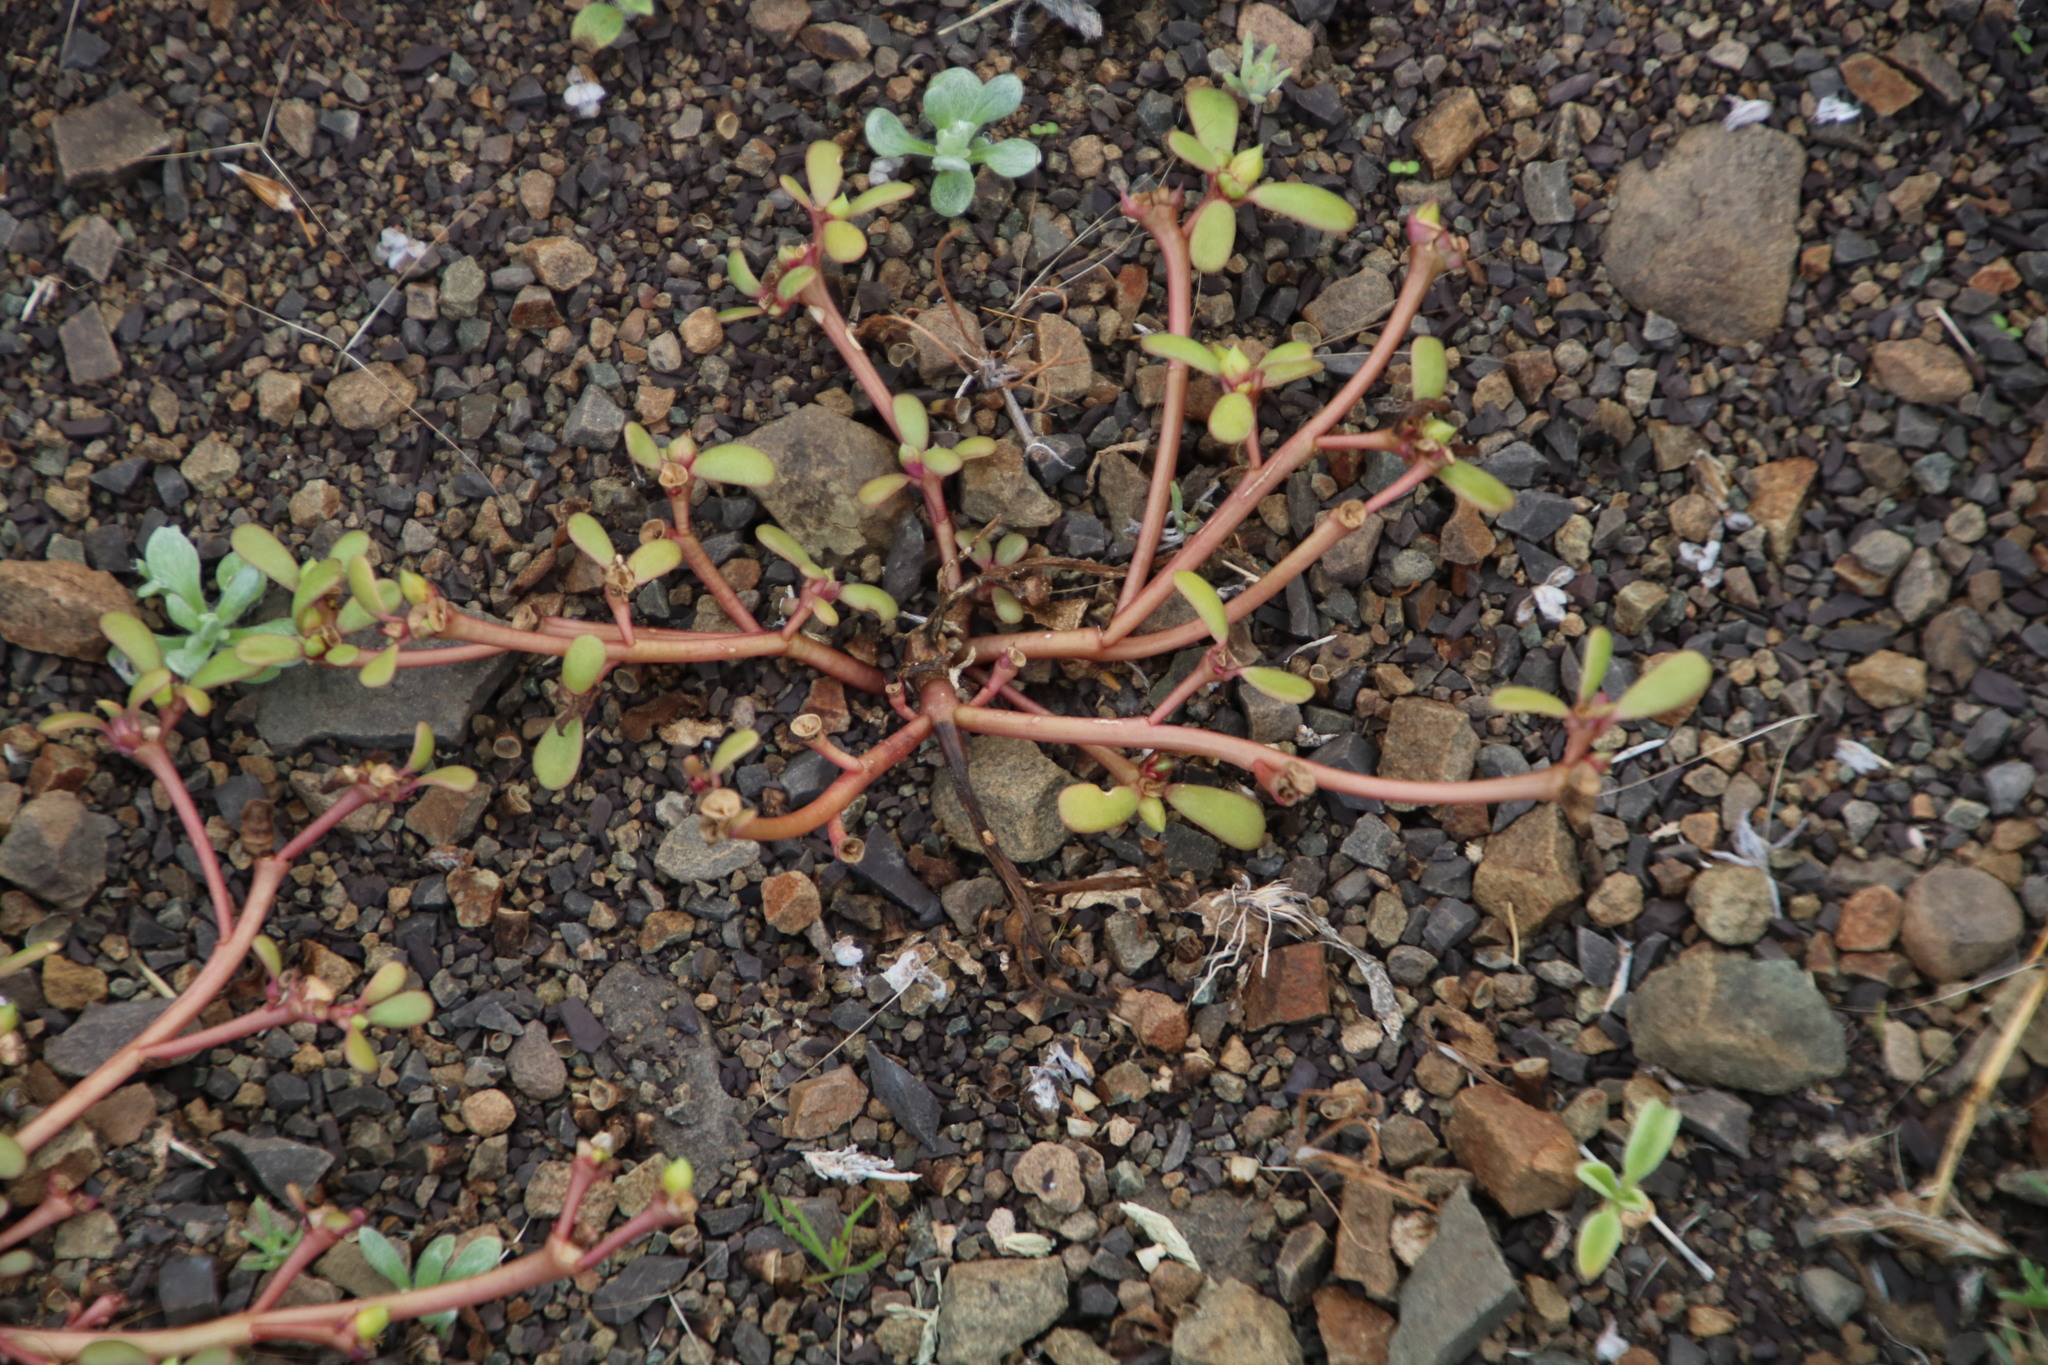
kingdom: Plantae
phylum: Tracheophyta
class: Magnoliopsida
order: Caryophyllales
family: Portulacaceae
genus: Portulaca
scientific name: Portulaca oleracea
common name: Common purslane
